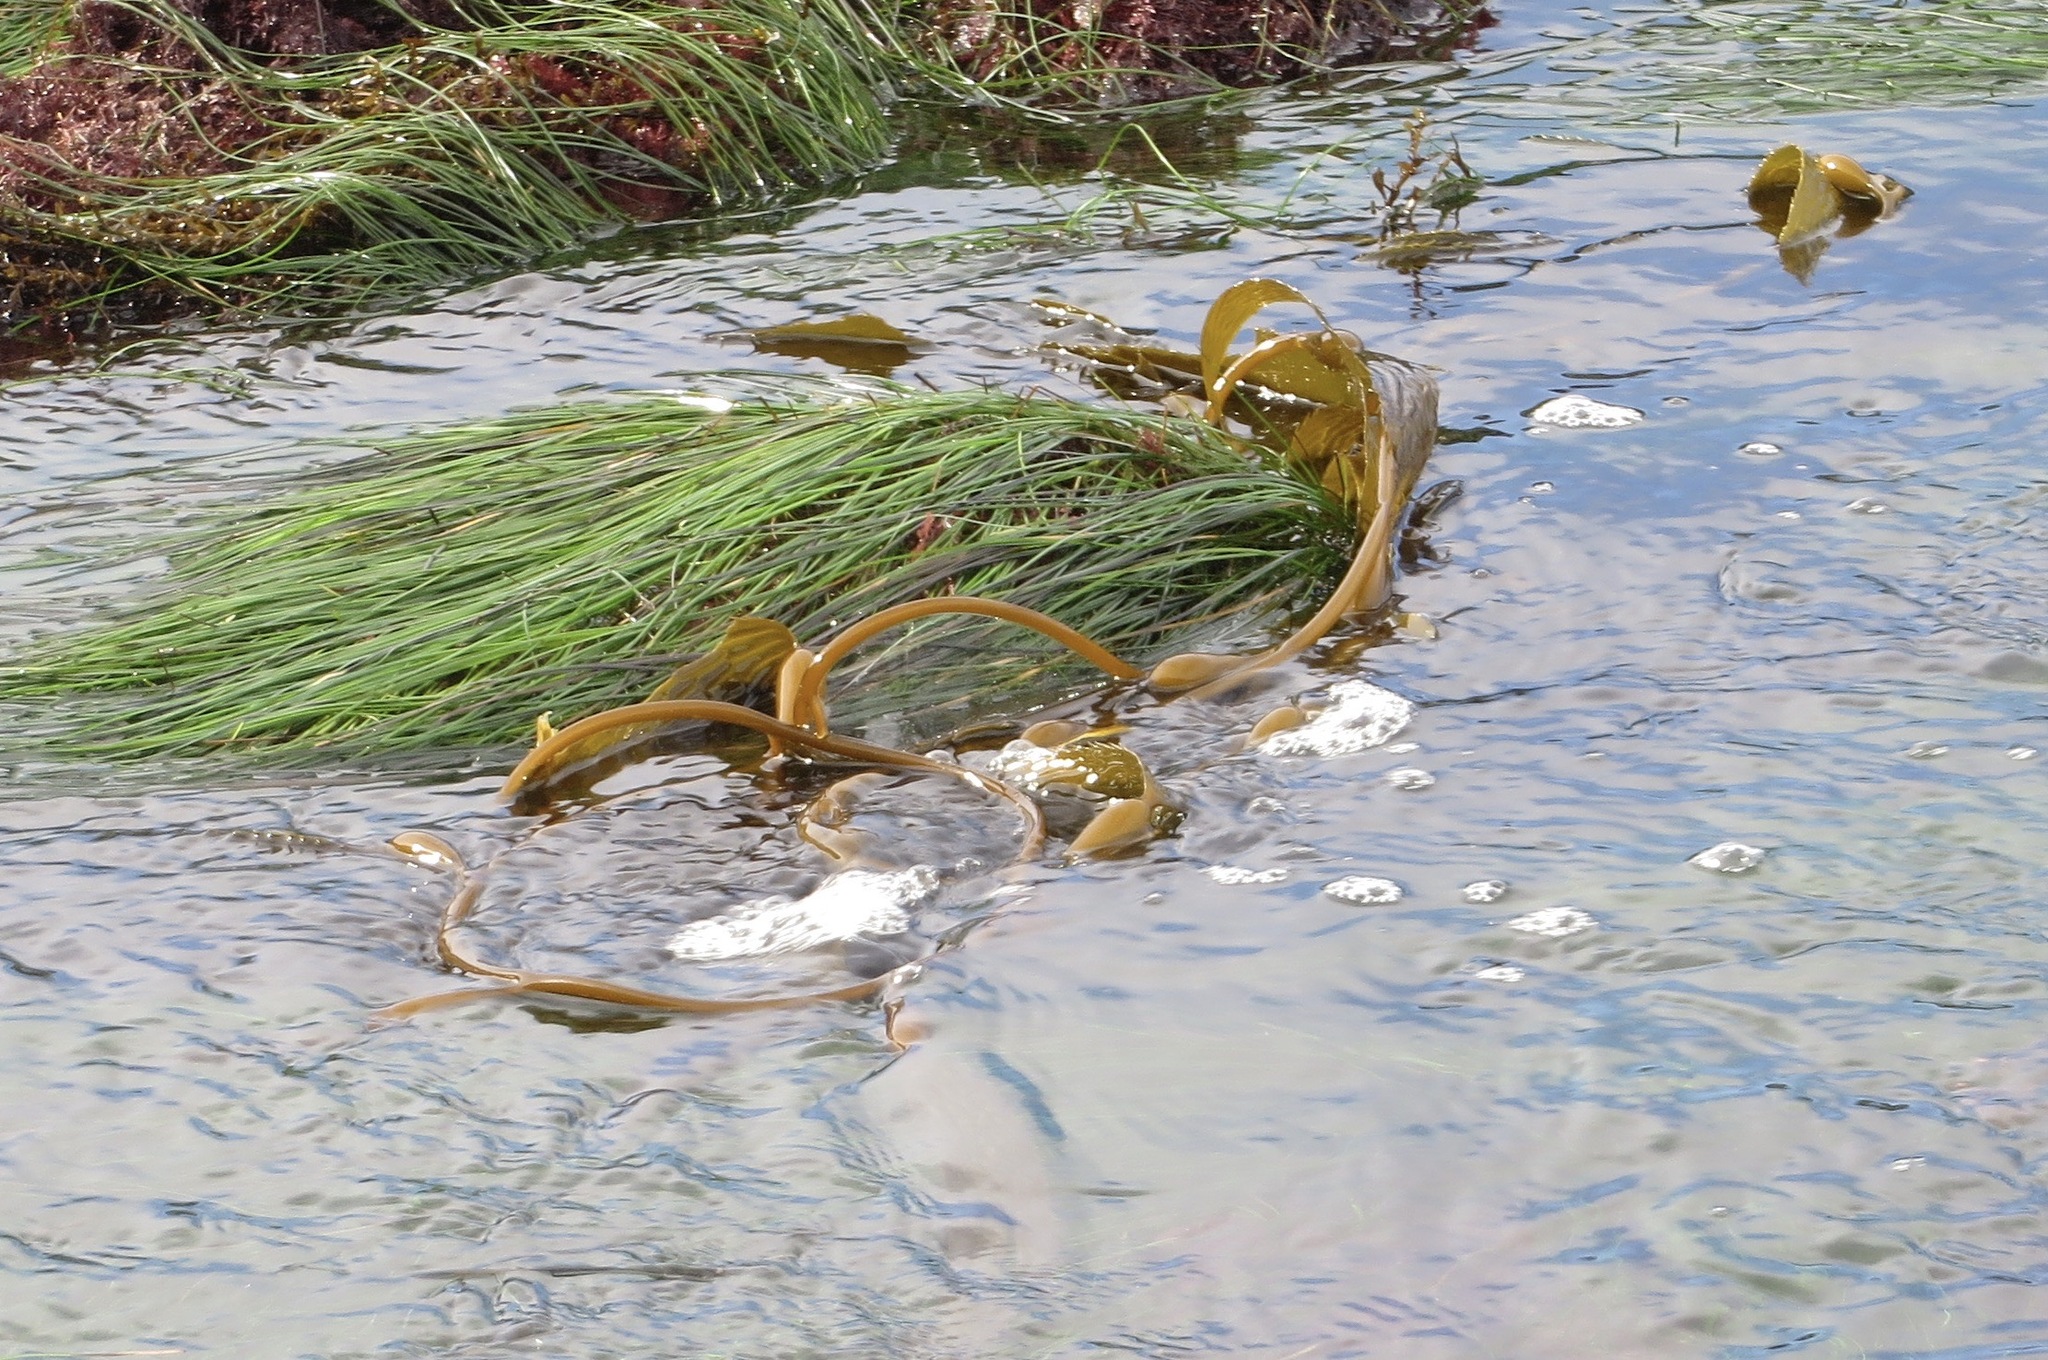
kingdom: Chromista
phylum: Ochrophyta
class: Phaeophyceae
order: Laminariales
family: Laminariaceae
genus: Macrocystis
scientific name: Macrocystis pyrifera
